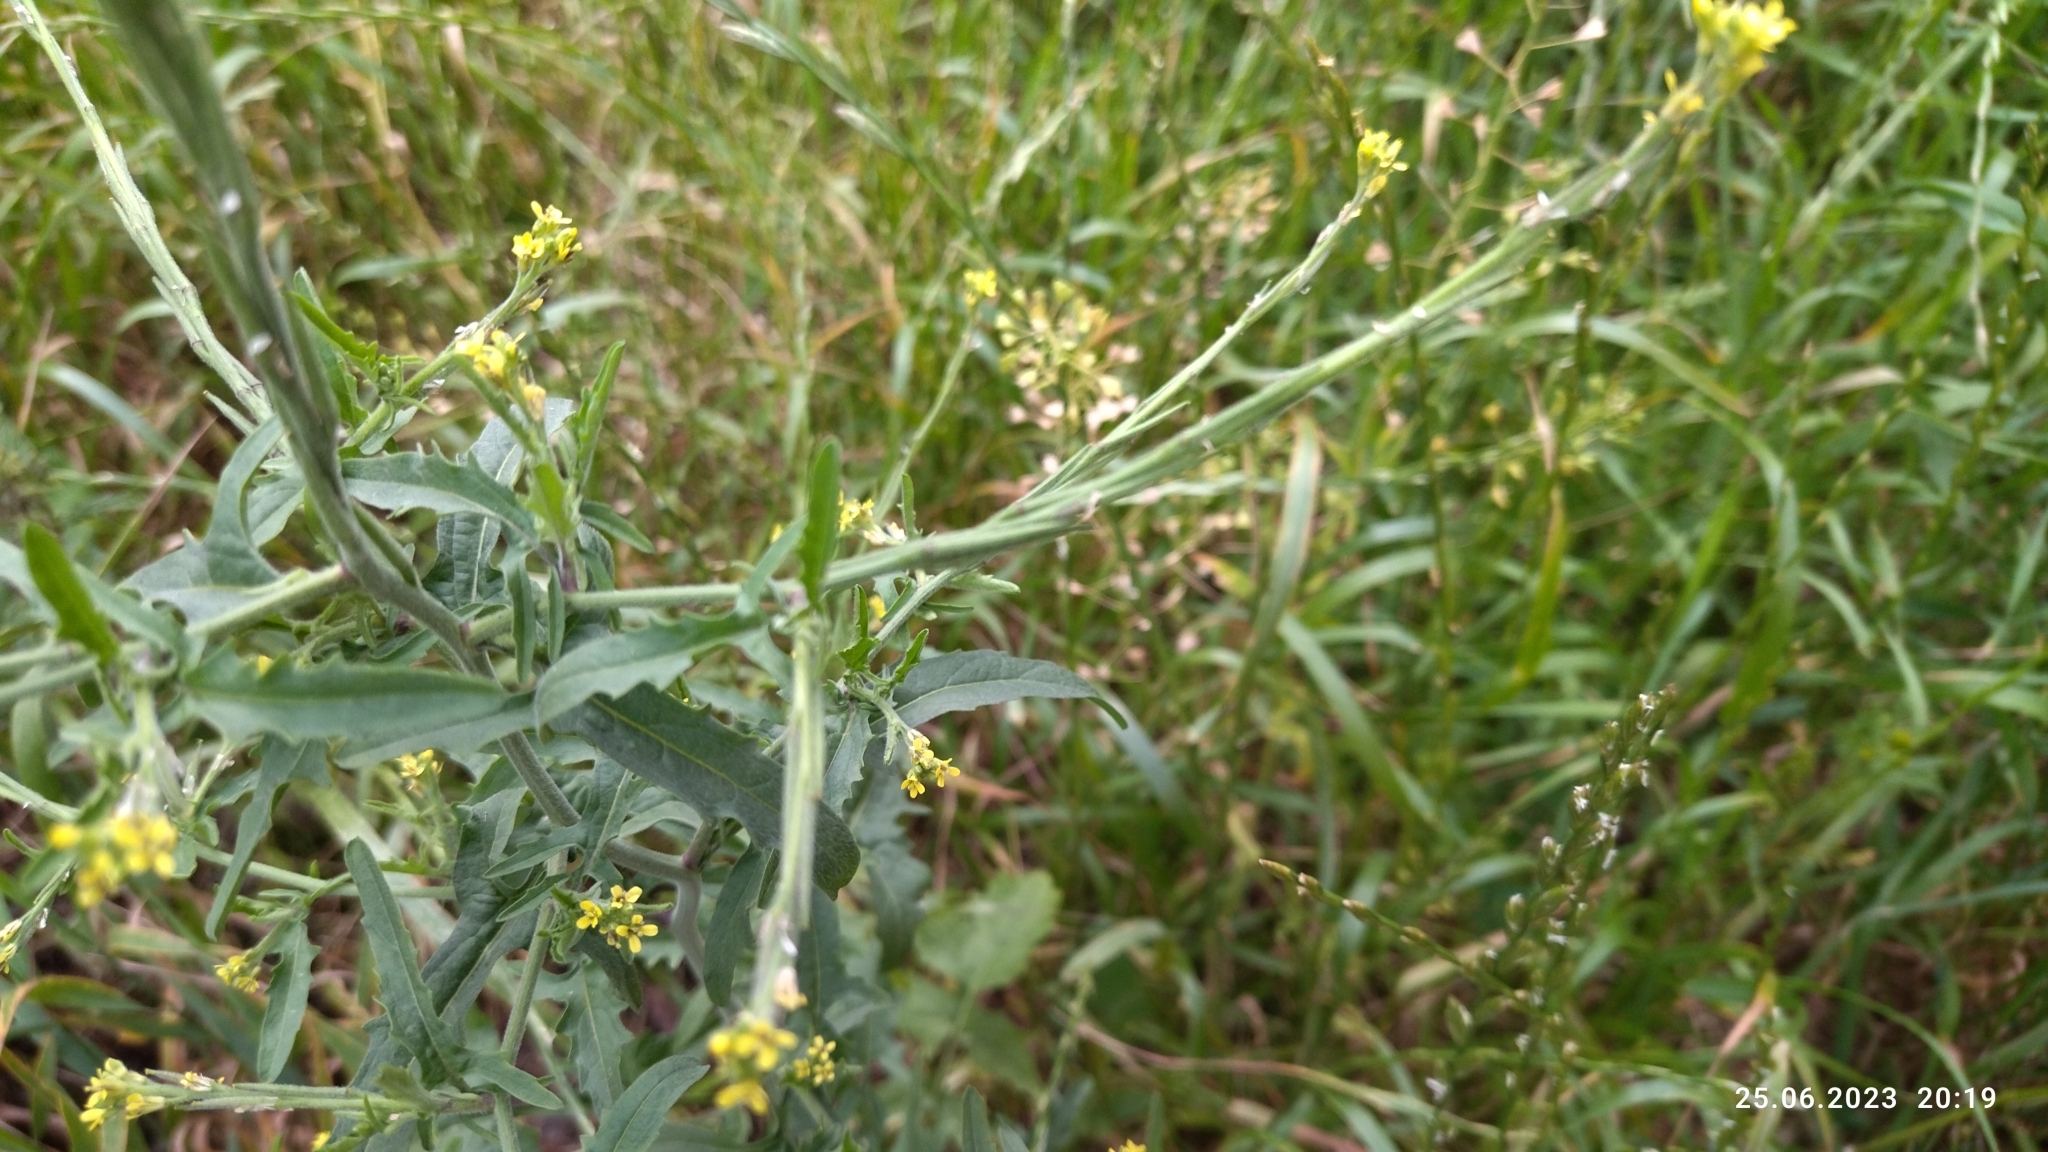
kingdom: Plantae
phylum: Tracheophyta
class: Magnoliopsida
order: Brassicales
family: Brassicaceae
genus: Sisymbrium
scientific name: Sisymbrium officinale
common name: Hedge mustard
